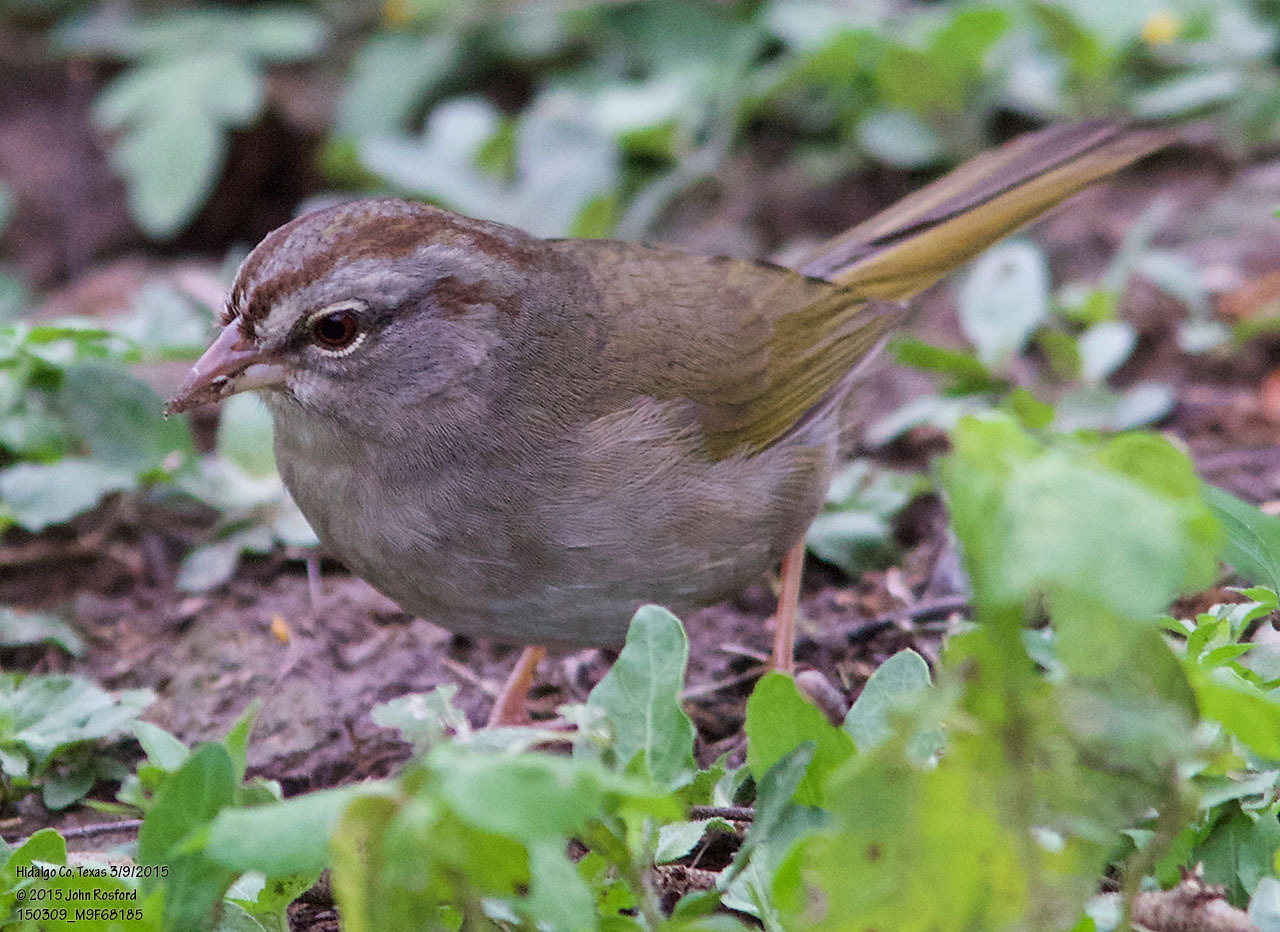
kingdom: Animalia
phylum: Chordata
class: Aves
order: Passeriformes
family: Passerellidae
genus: Arremonops
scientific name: Arremonops rufivirgatus
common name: Olive sparrow
